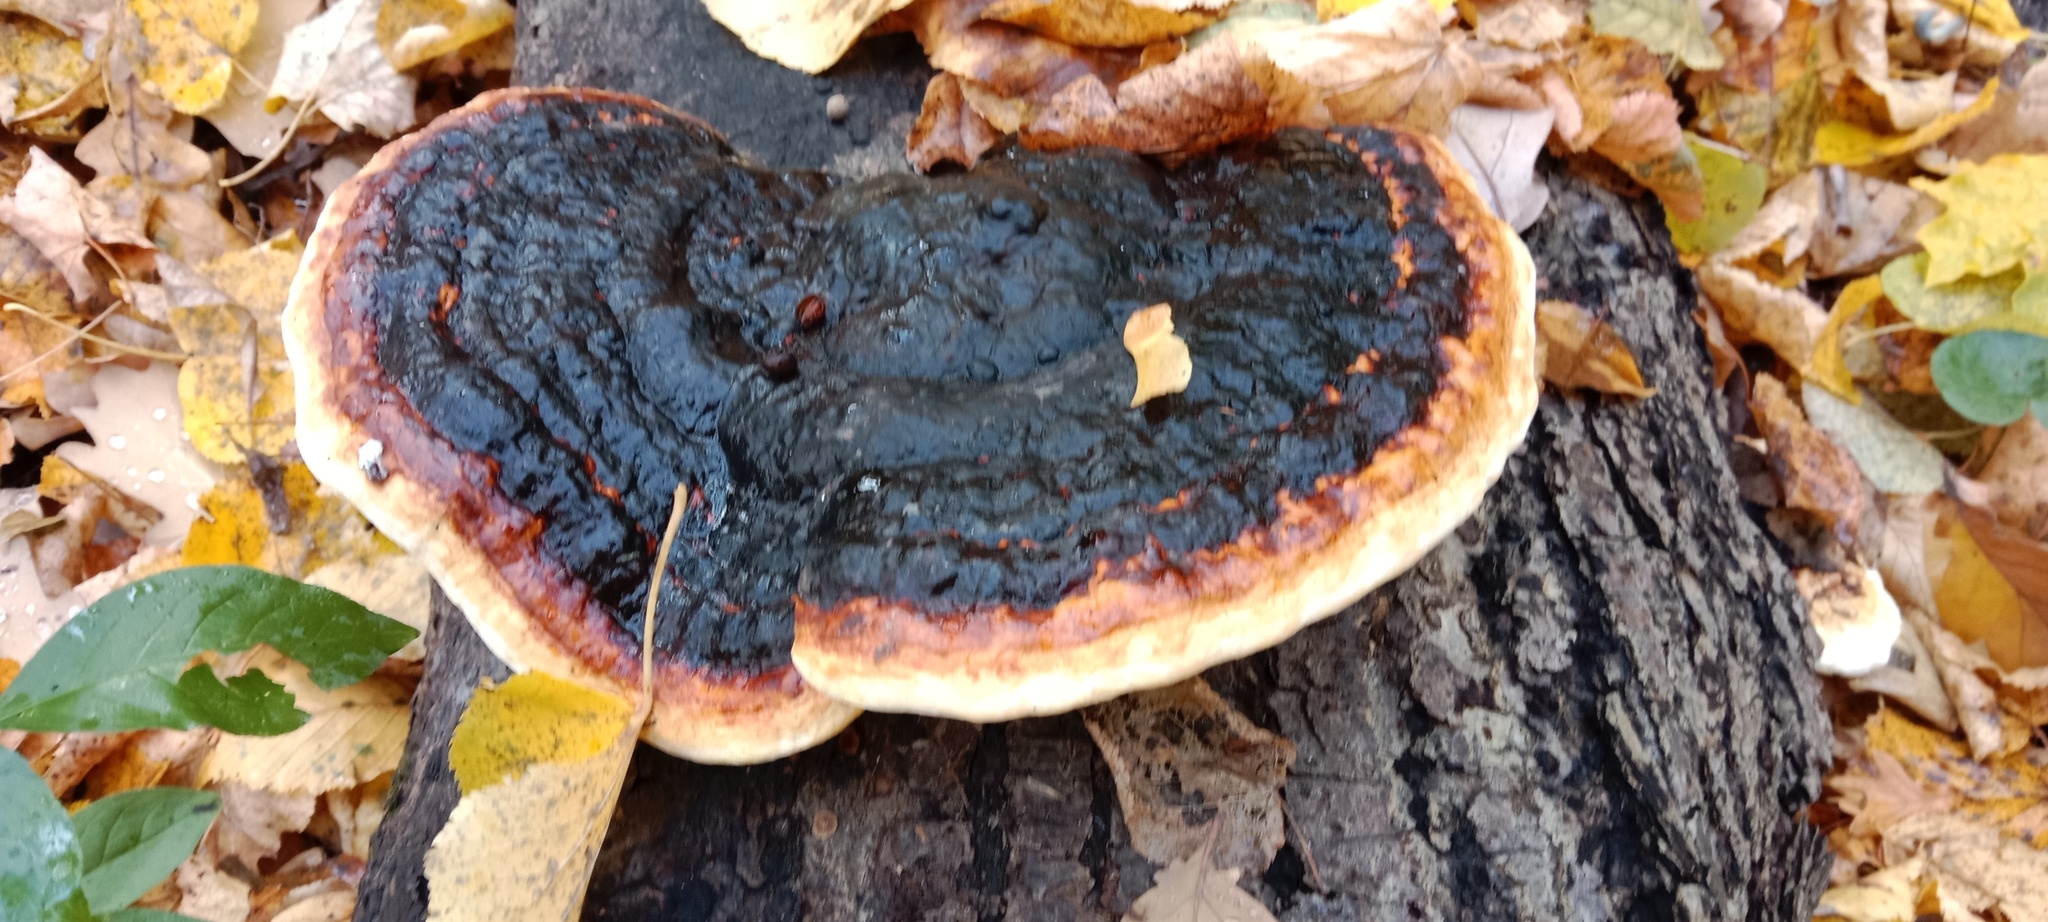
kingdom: Fungi
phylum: Basidiomycota
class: Agaricomycetes
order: Polyporales
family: Fomitopsidaceae
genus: Fomitopsis
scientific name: Fomitopsis pinicola
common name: Red-belted bracket
